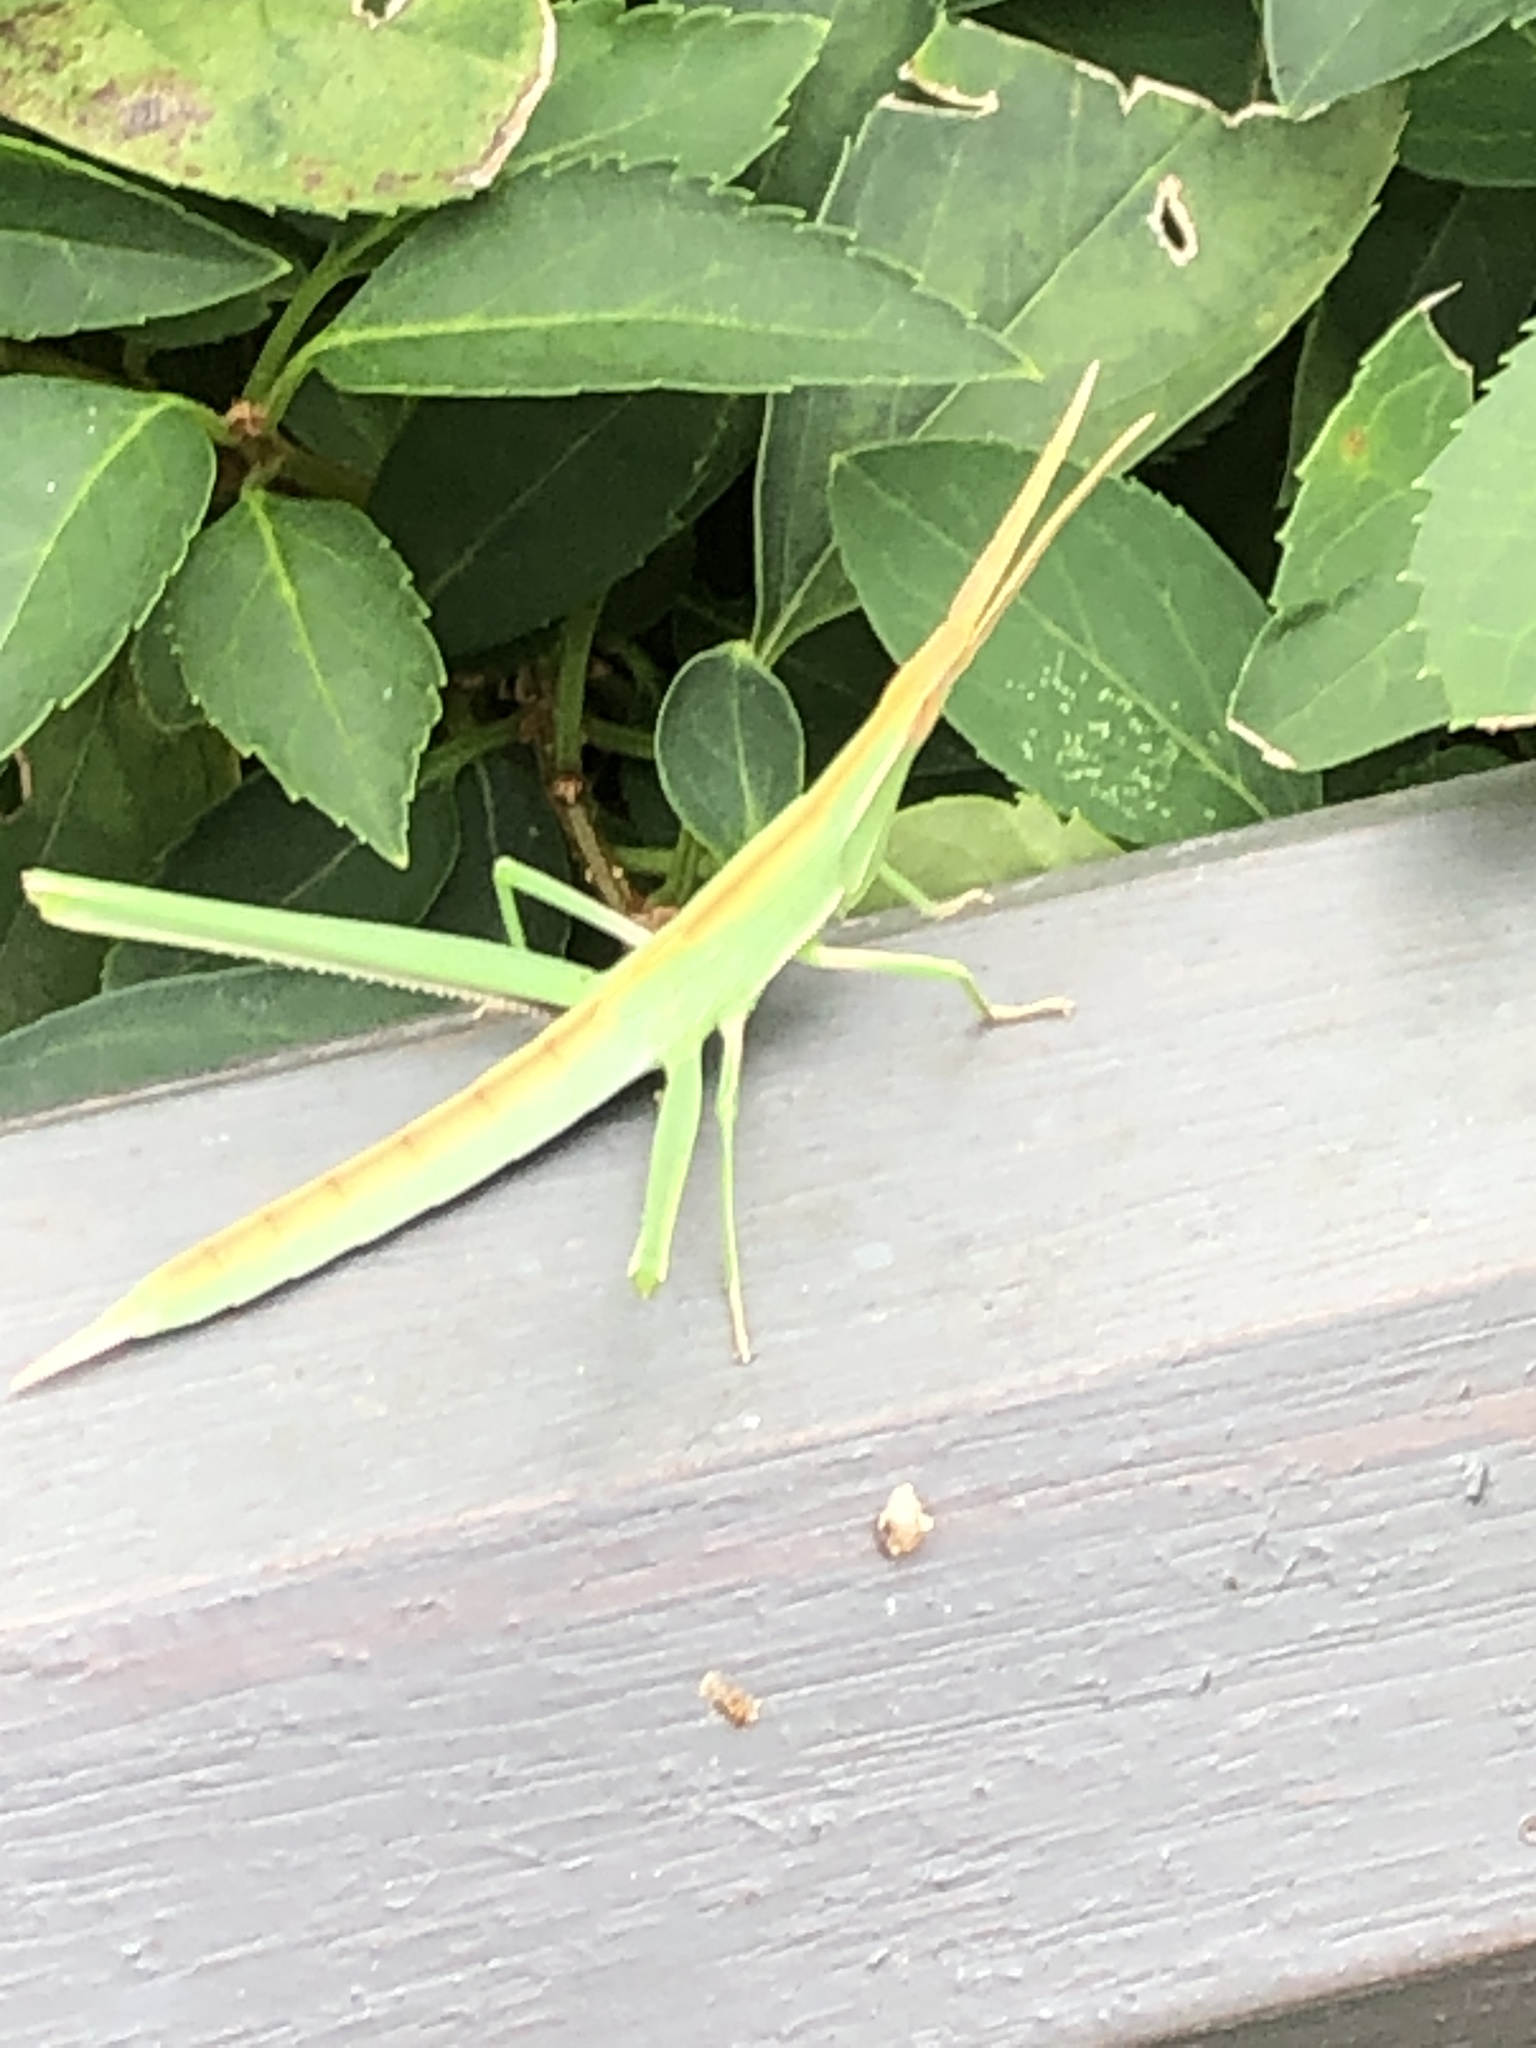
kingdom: Animalia
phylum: Arthropoda
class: Insecta
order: Orthoptera
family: Acrididae
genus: Acrida
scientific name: Acrida cinerea
